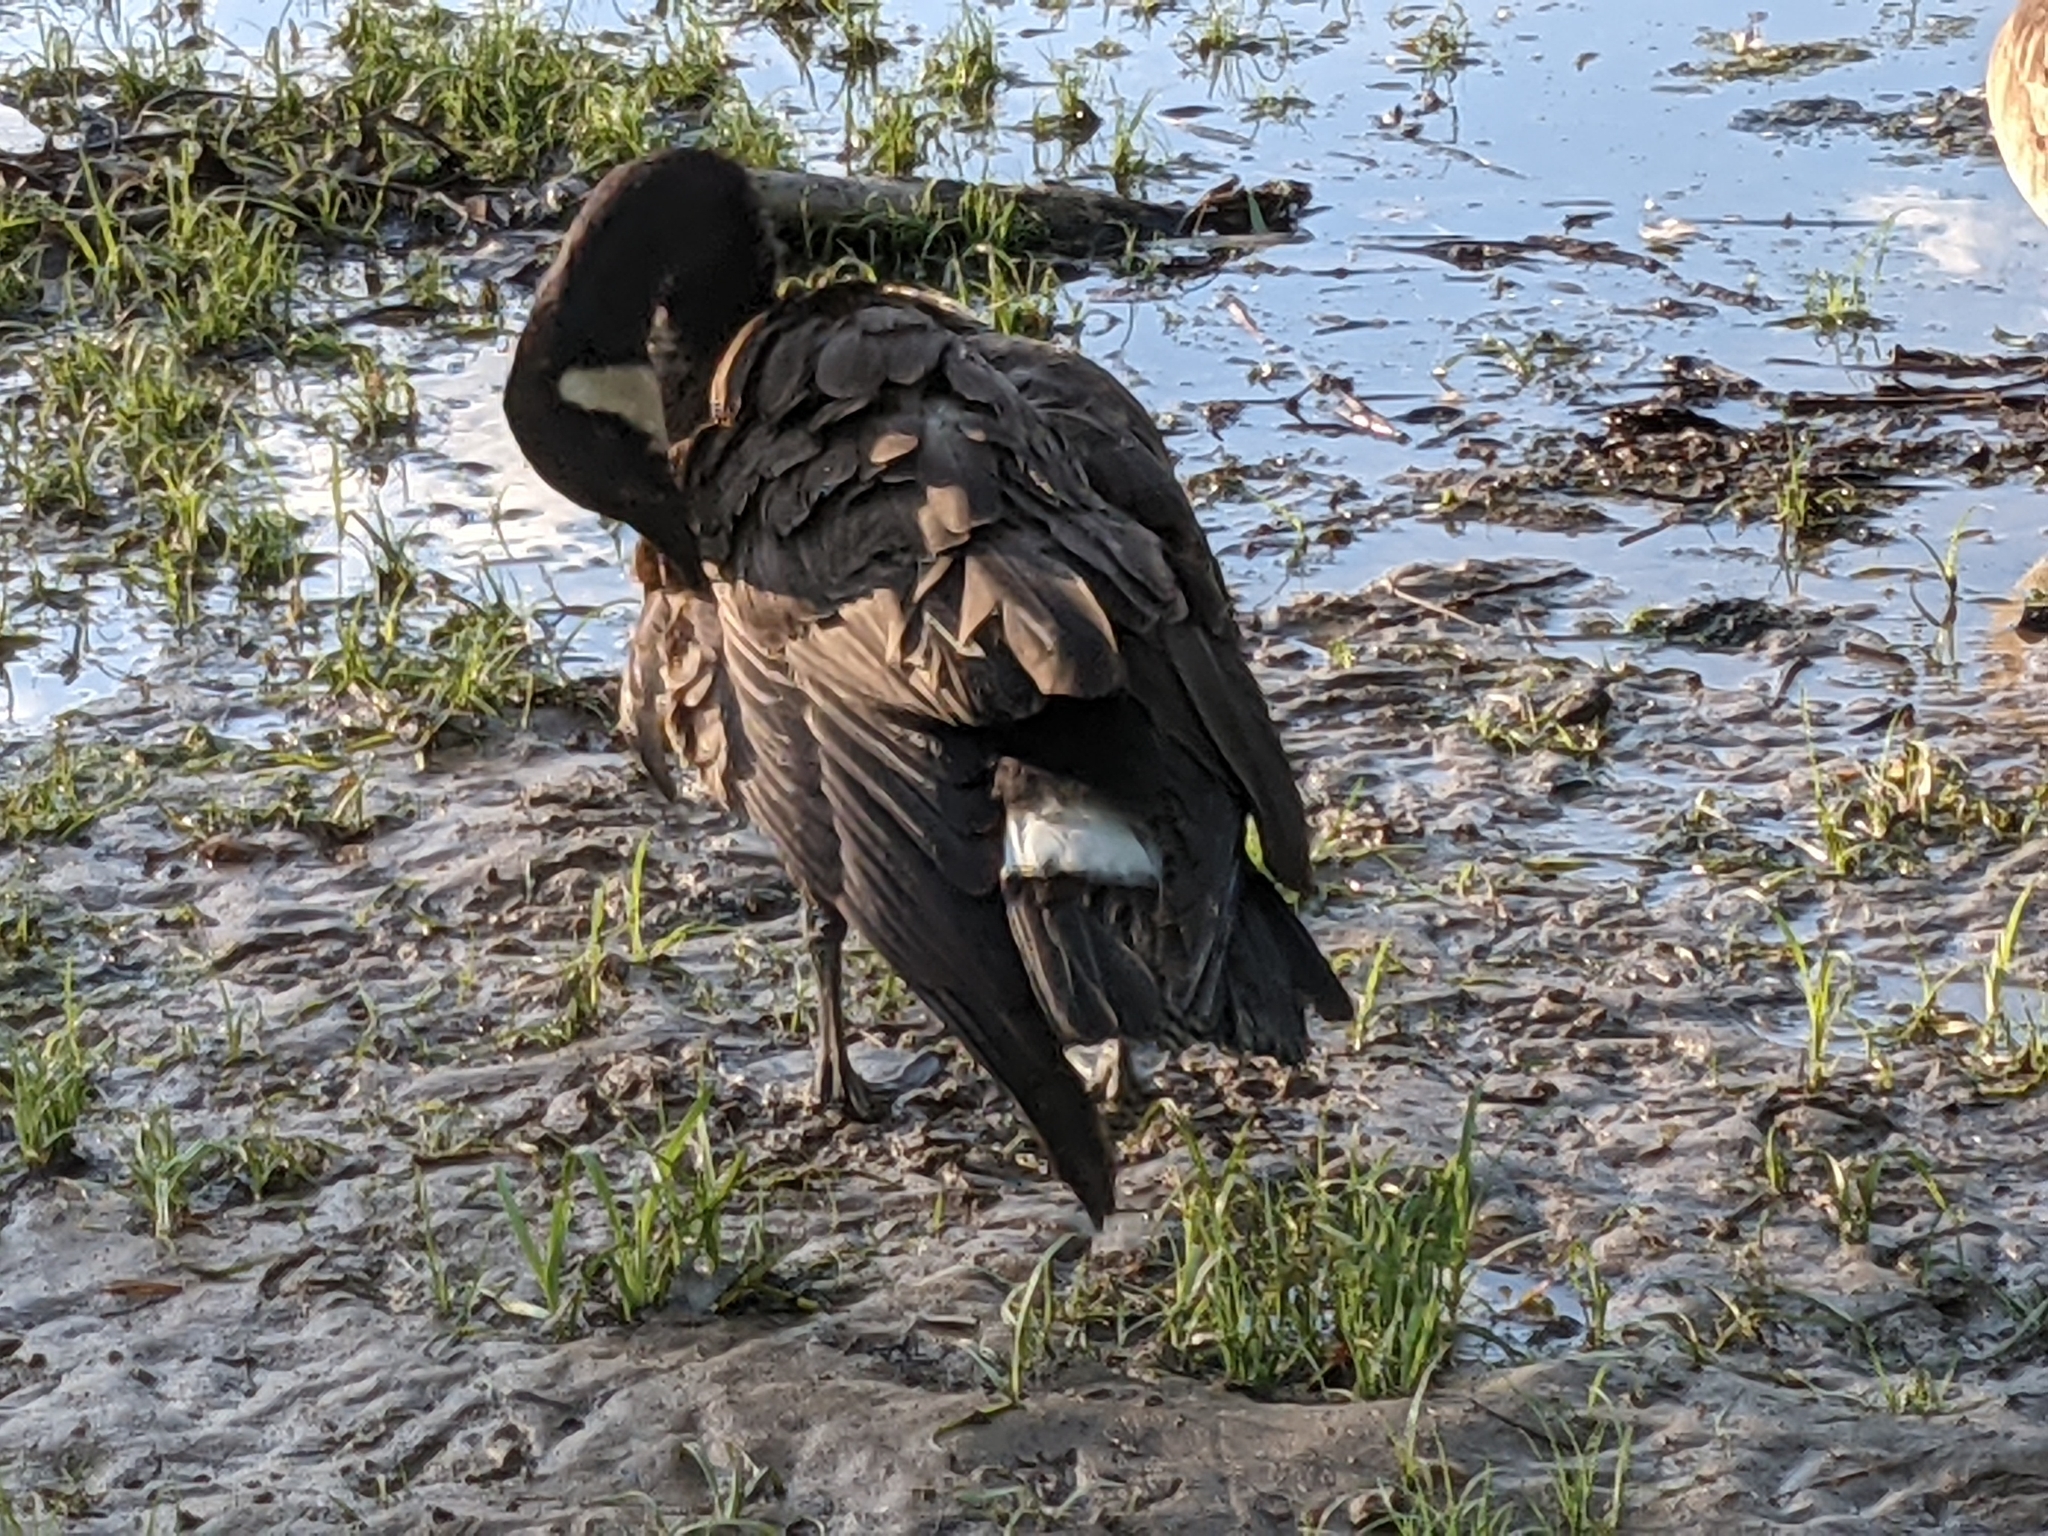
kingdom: Animalia
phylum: Chordata
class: Aves
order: Anseriformes
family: Anatidae
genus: Branta
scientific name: Branta canadensis
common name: Canada goose
